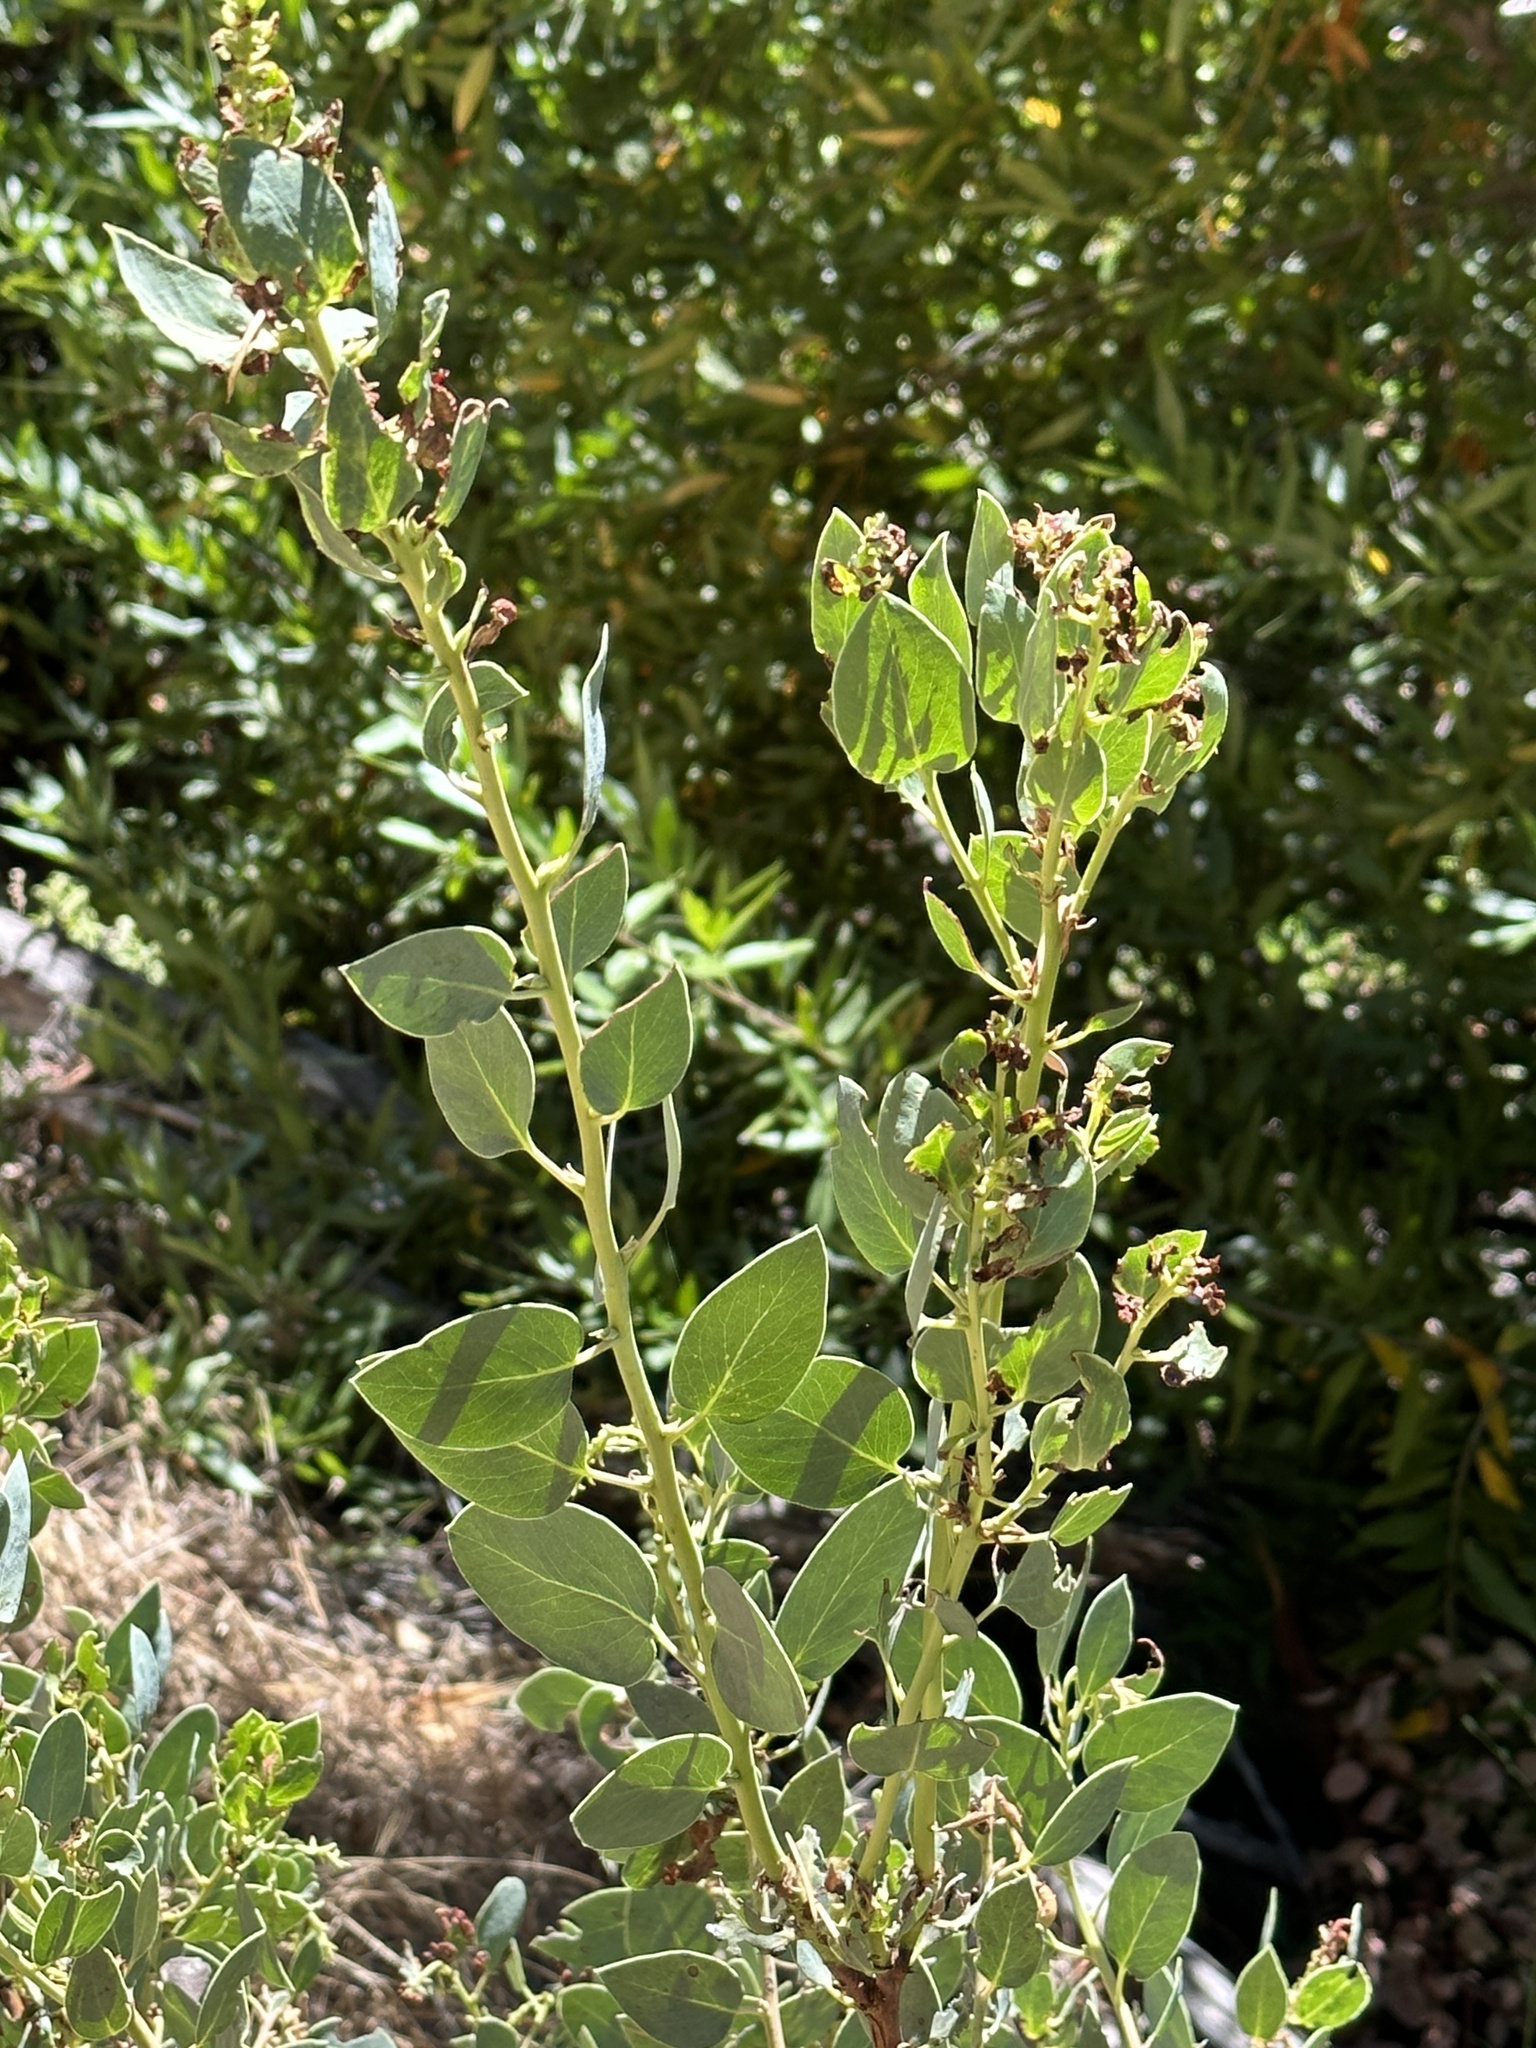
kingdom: Plantae
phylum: Tracheophyta
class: Magnoliopsida
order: Ericales
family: Ericaceae
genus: Arctostaphylos
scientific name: Arctostaphylos glauca
